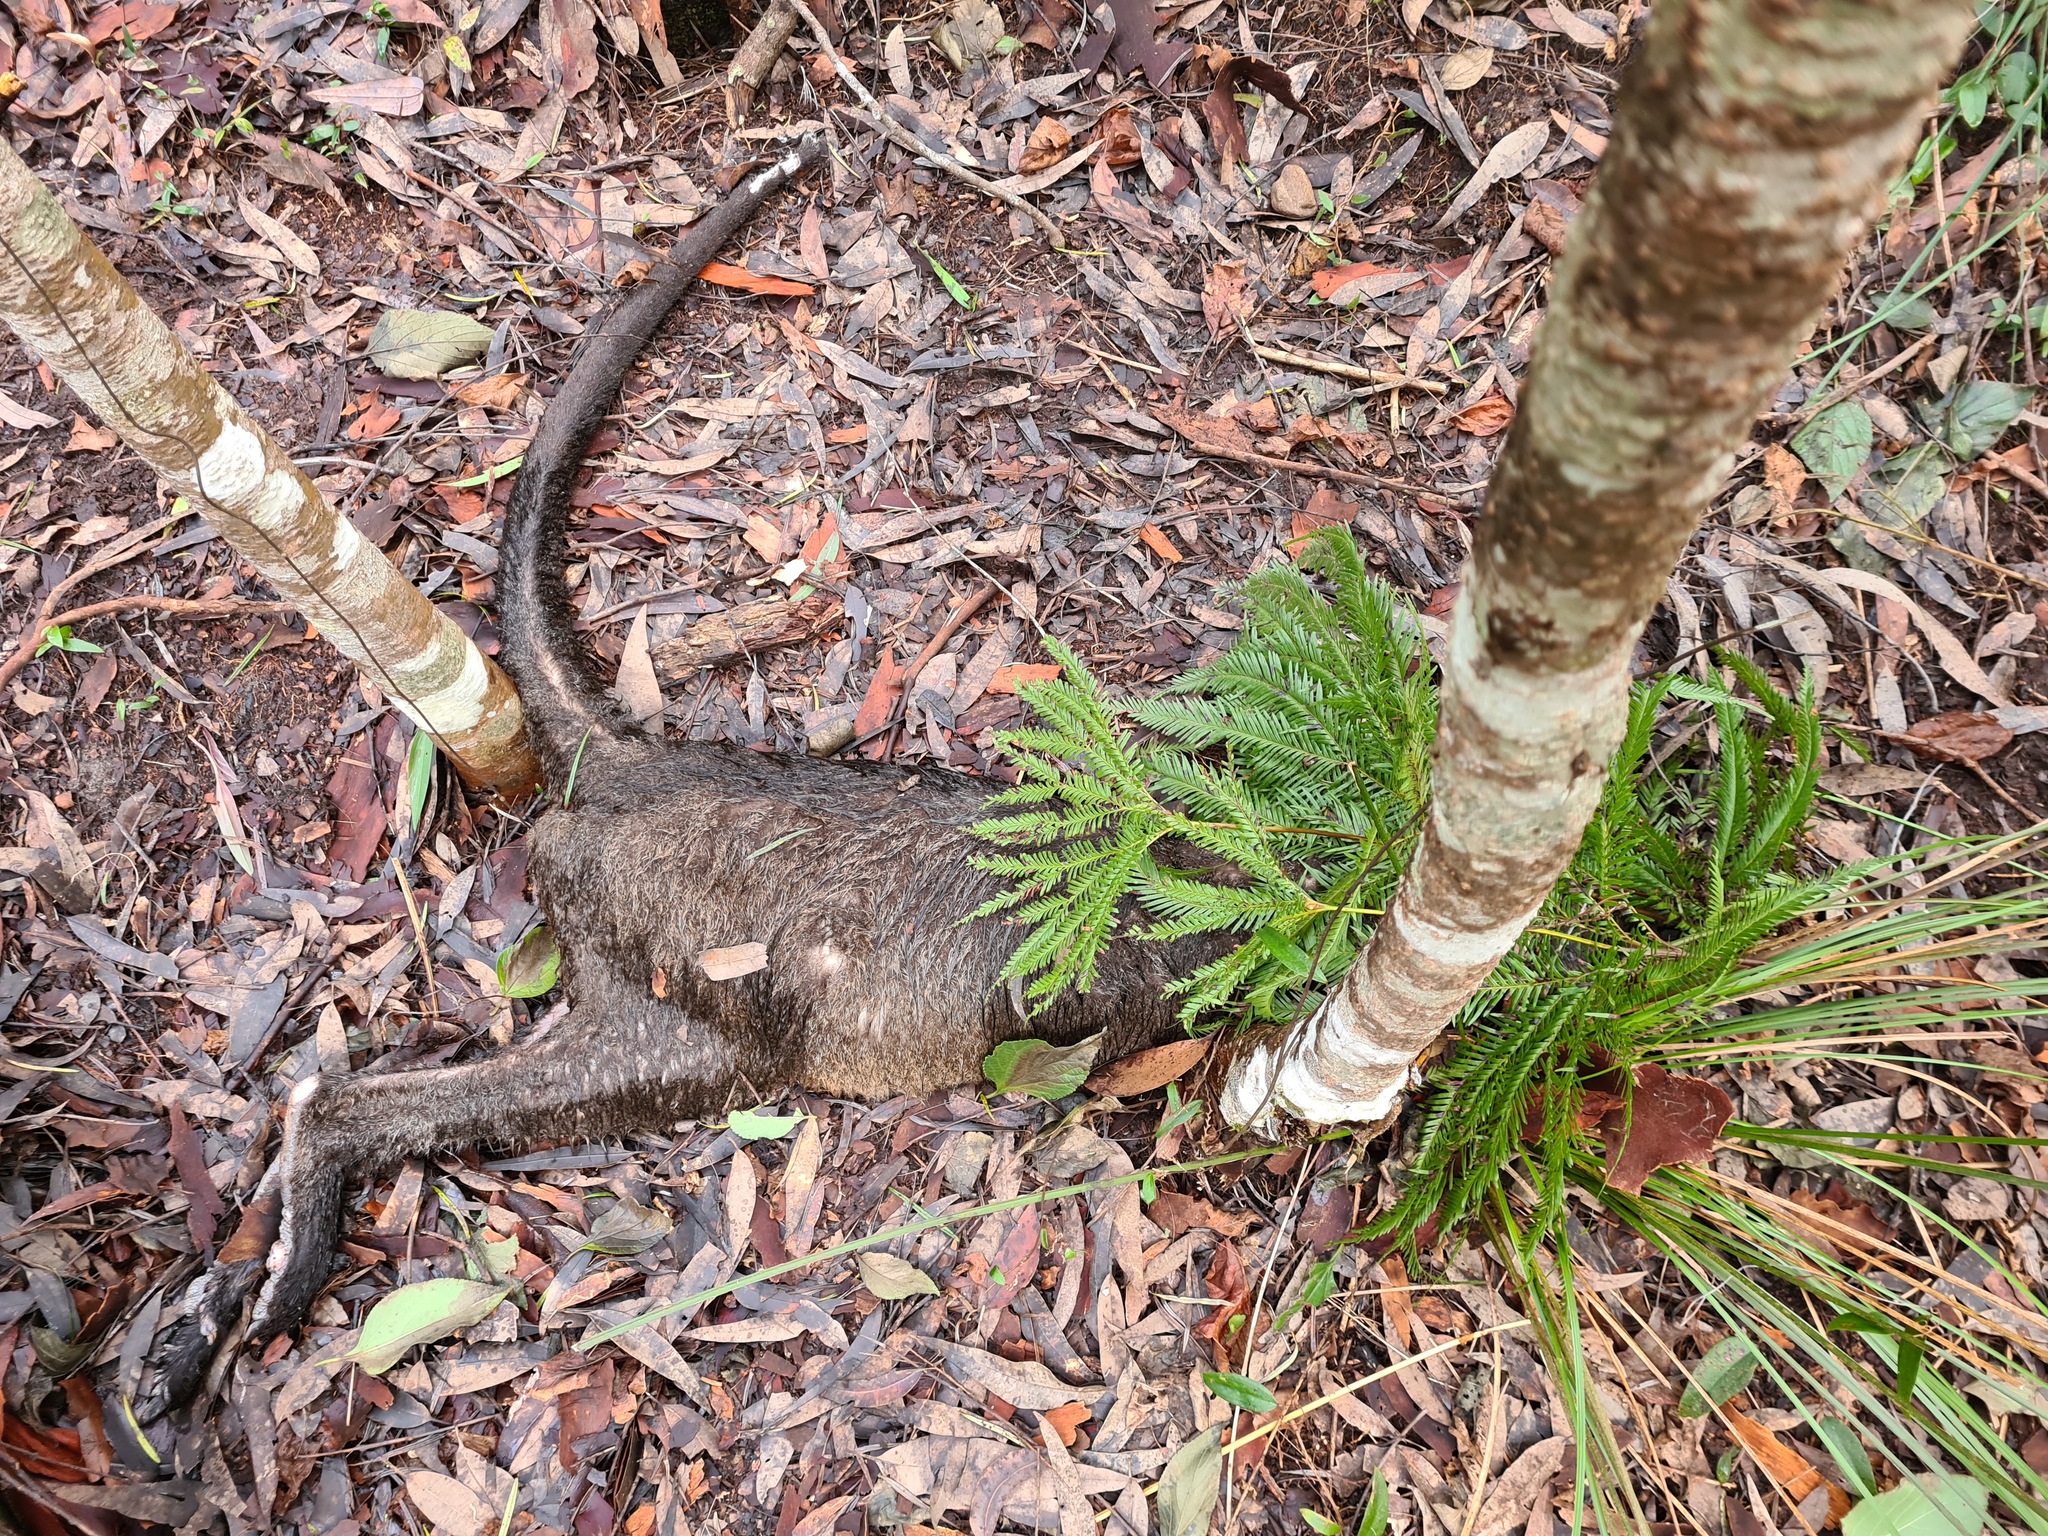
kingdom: Animalia
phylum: Chordata
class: Mammalia
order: Diprotodontia
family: Macropodidae
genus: Wallabia
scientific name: Wallabia bicolor
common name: Swamp wallaby
